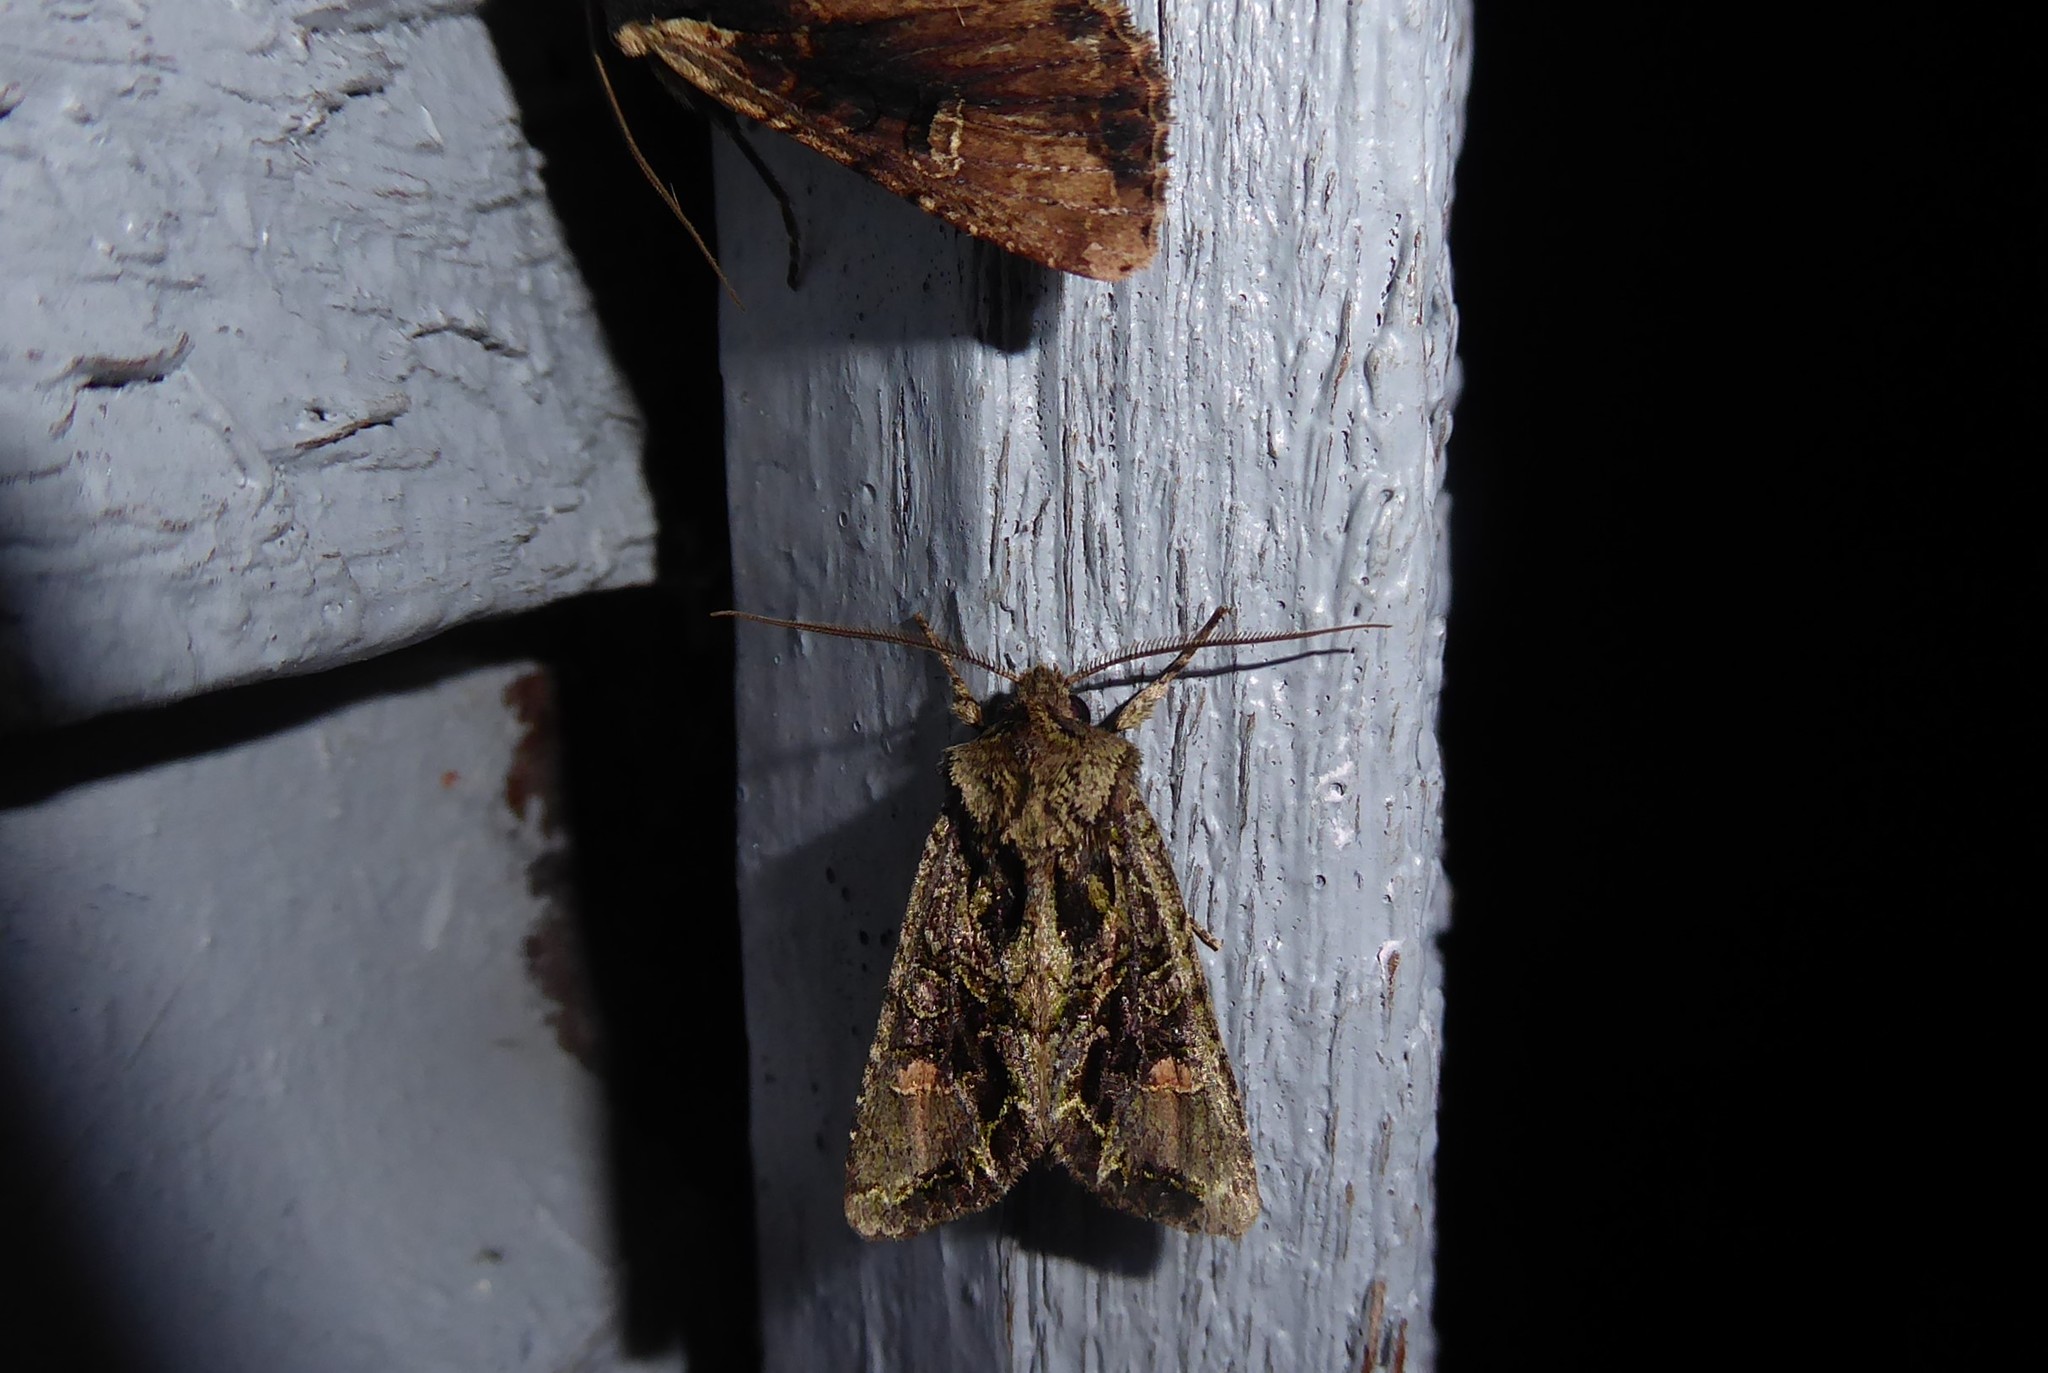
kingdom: Animalia
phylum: Arthropoda
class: Insecta
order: Lepidoptera
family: Noctuidae
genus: Ichneutica
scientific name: Ichneutica insignis
